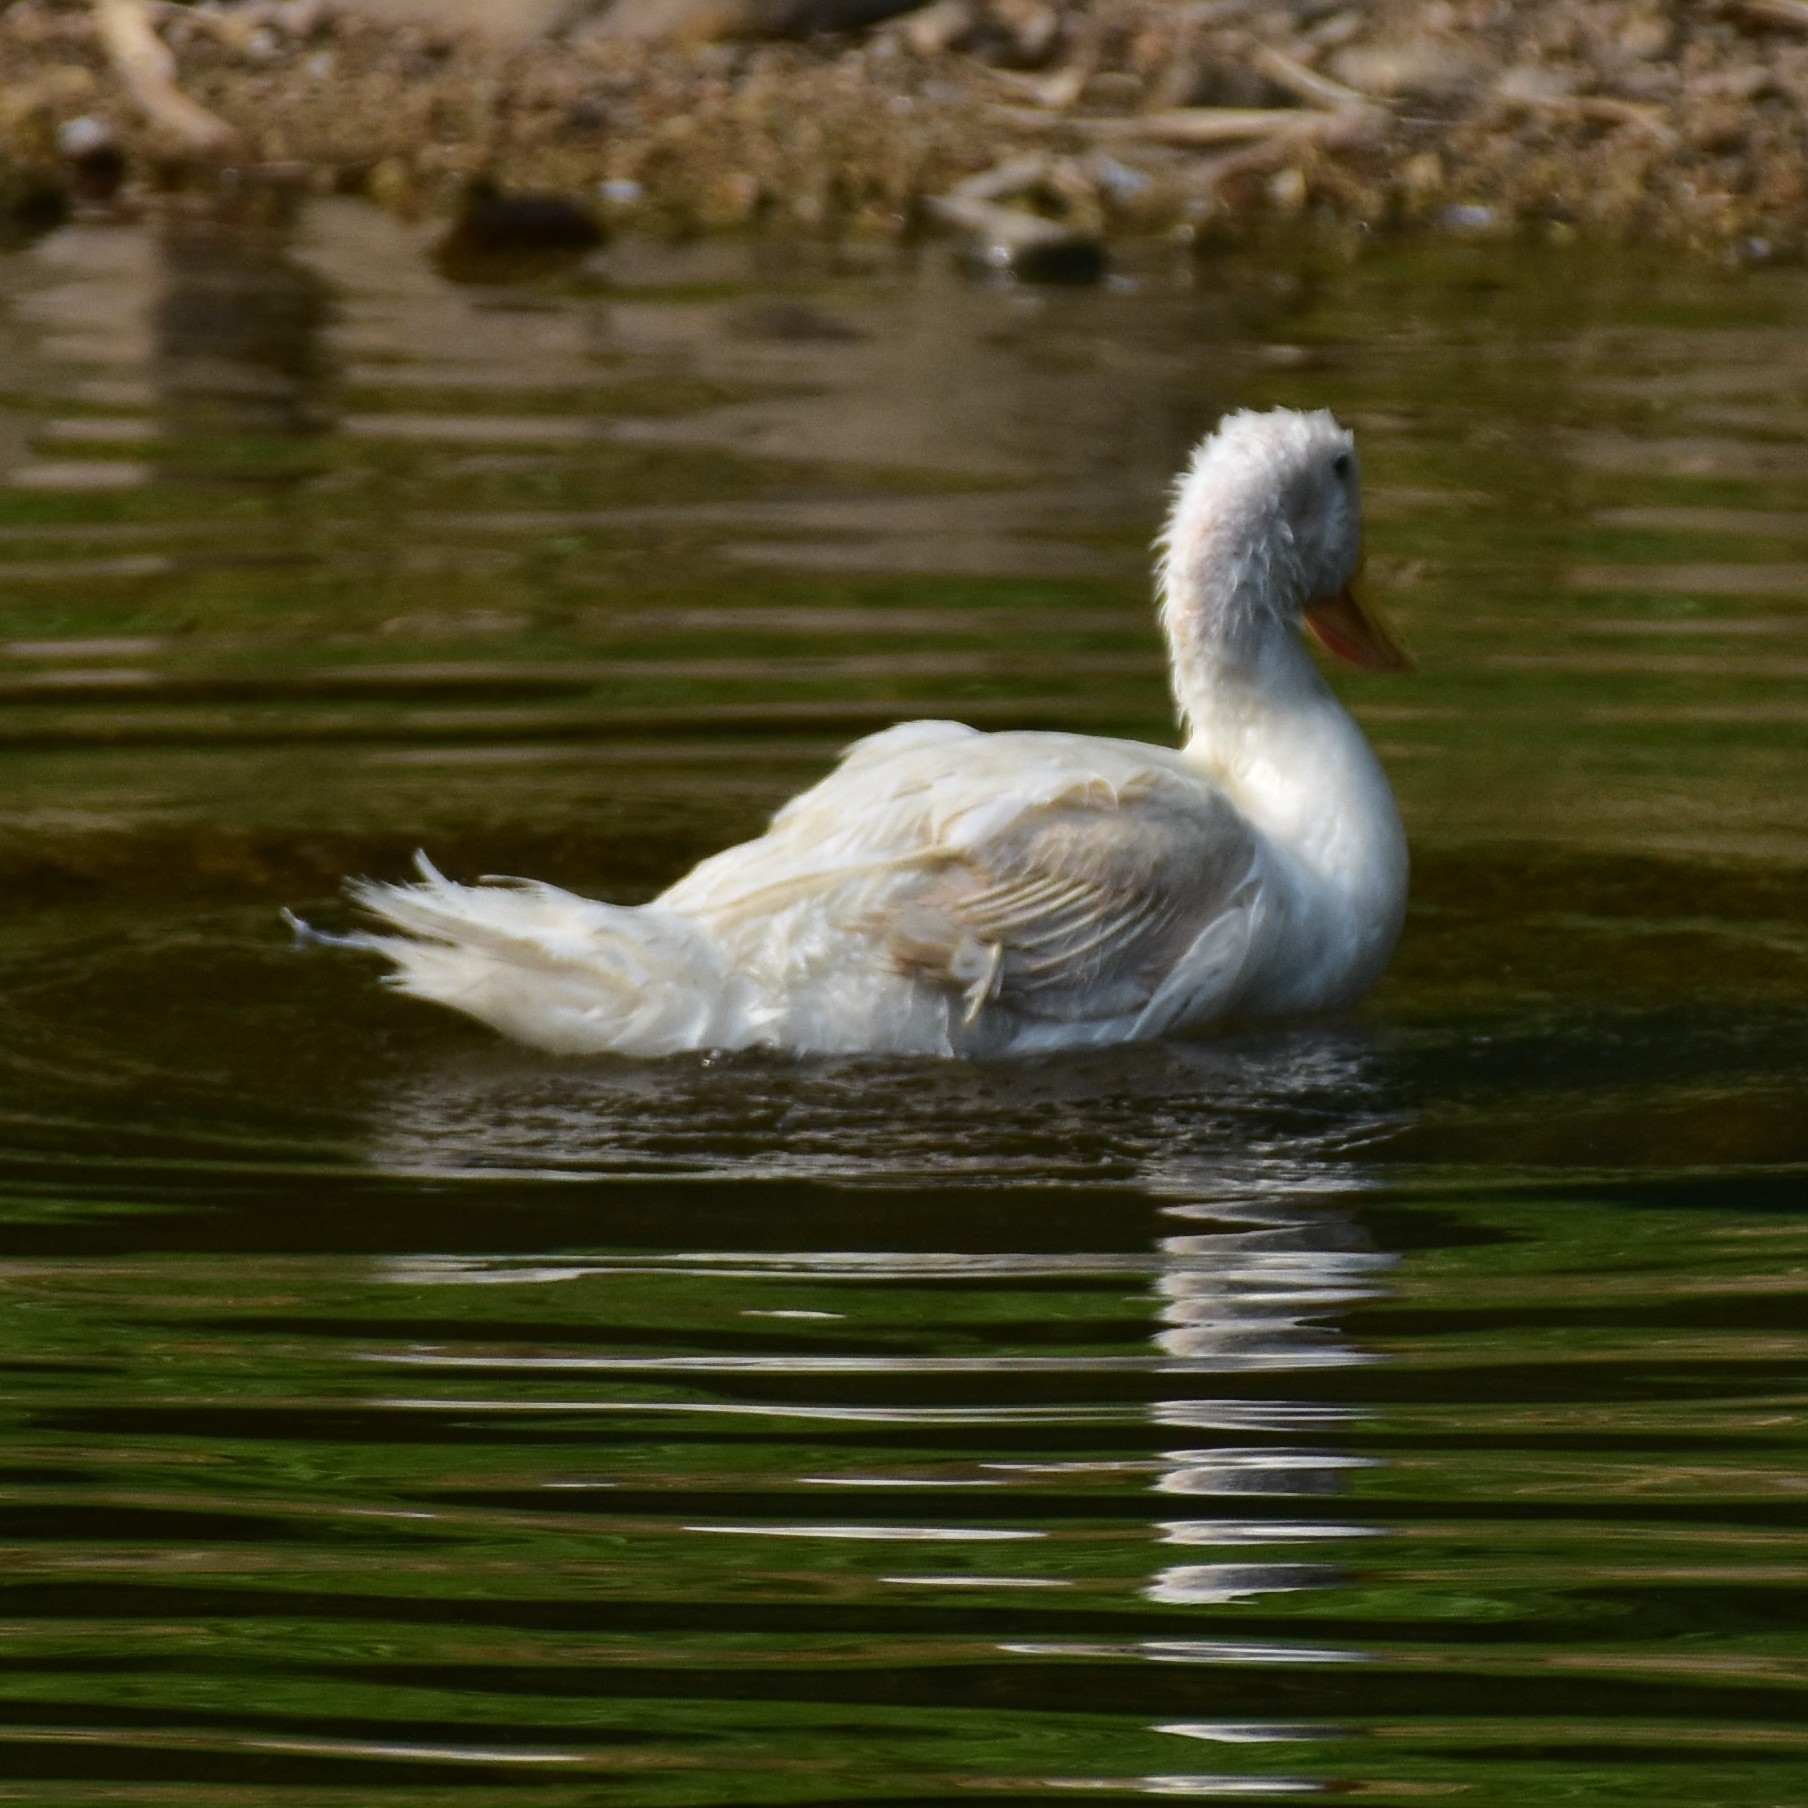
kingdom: Animalia
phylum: Chordata
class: Aves
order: Anseriformes
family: Anatidae
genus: Anas
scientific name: Anas platyrhynchos
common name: Mallard
